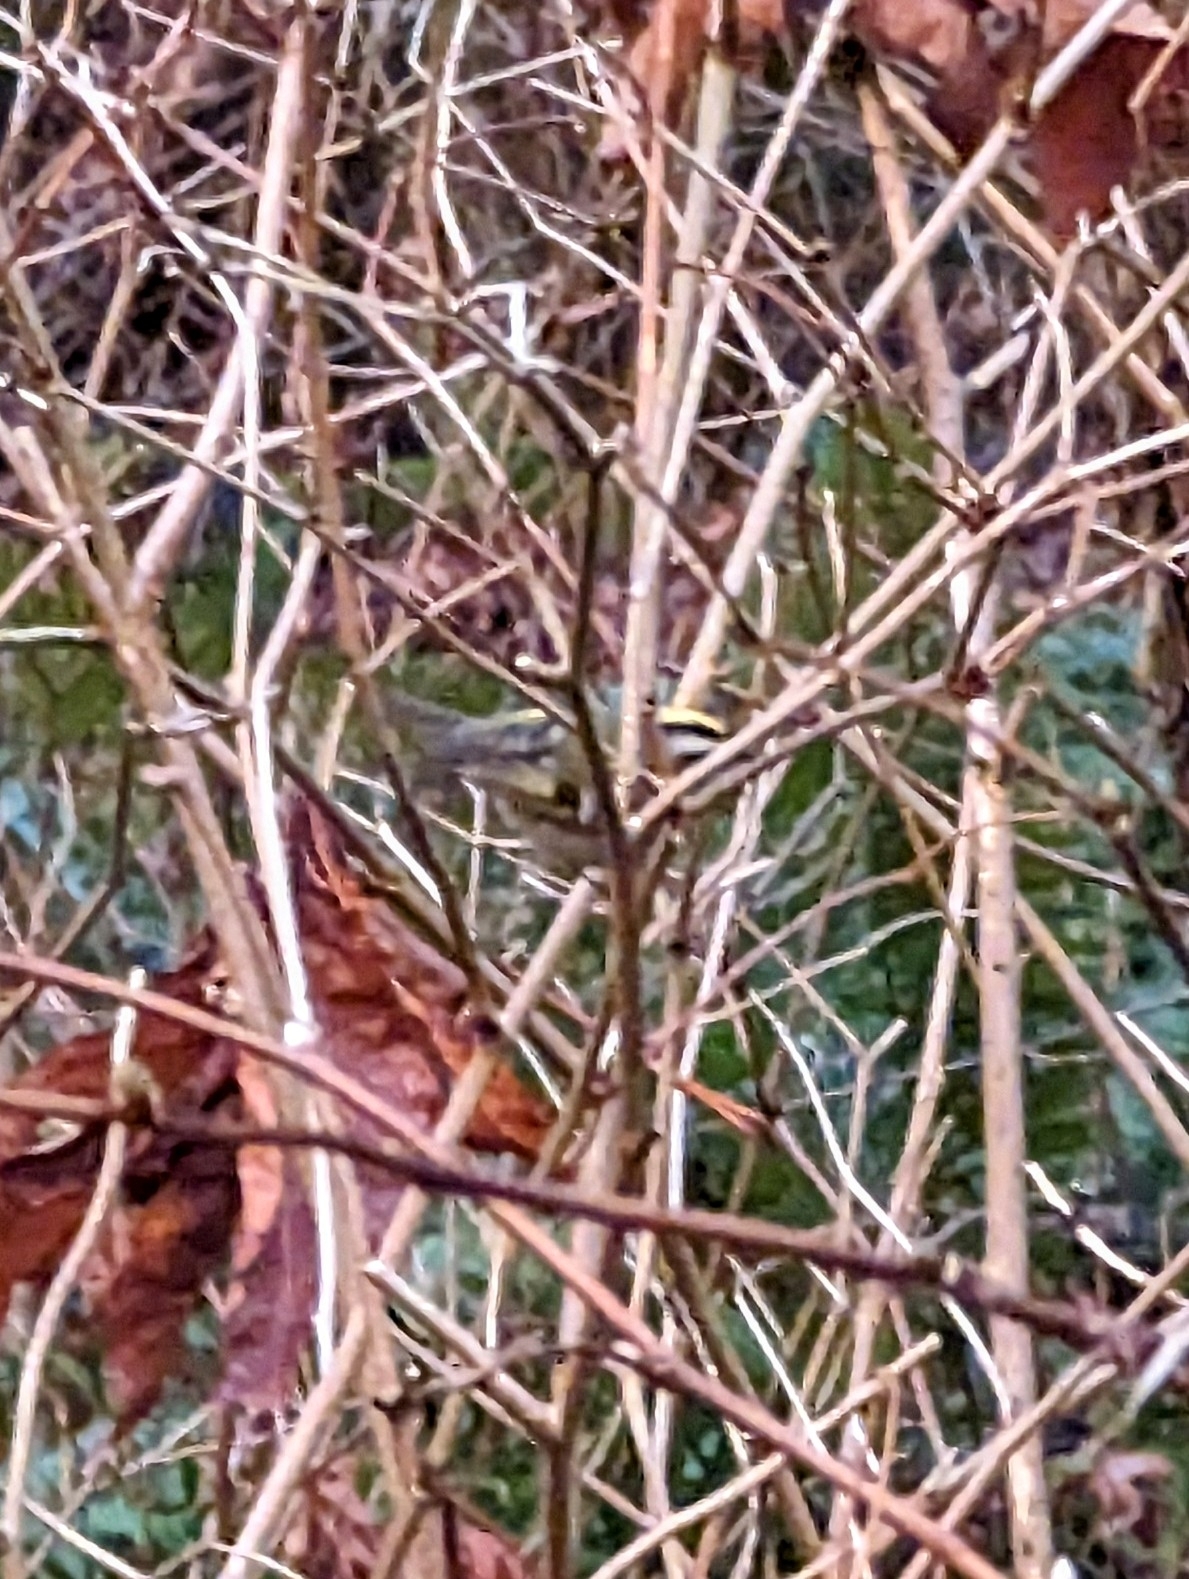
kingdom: Animalia
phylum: Chordata
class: Aves
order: Passeriformes
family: Regulidae
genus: Regulus
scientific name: Regulus satrapa
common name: Golden-crowned kinglet
